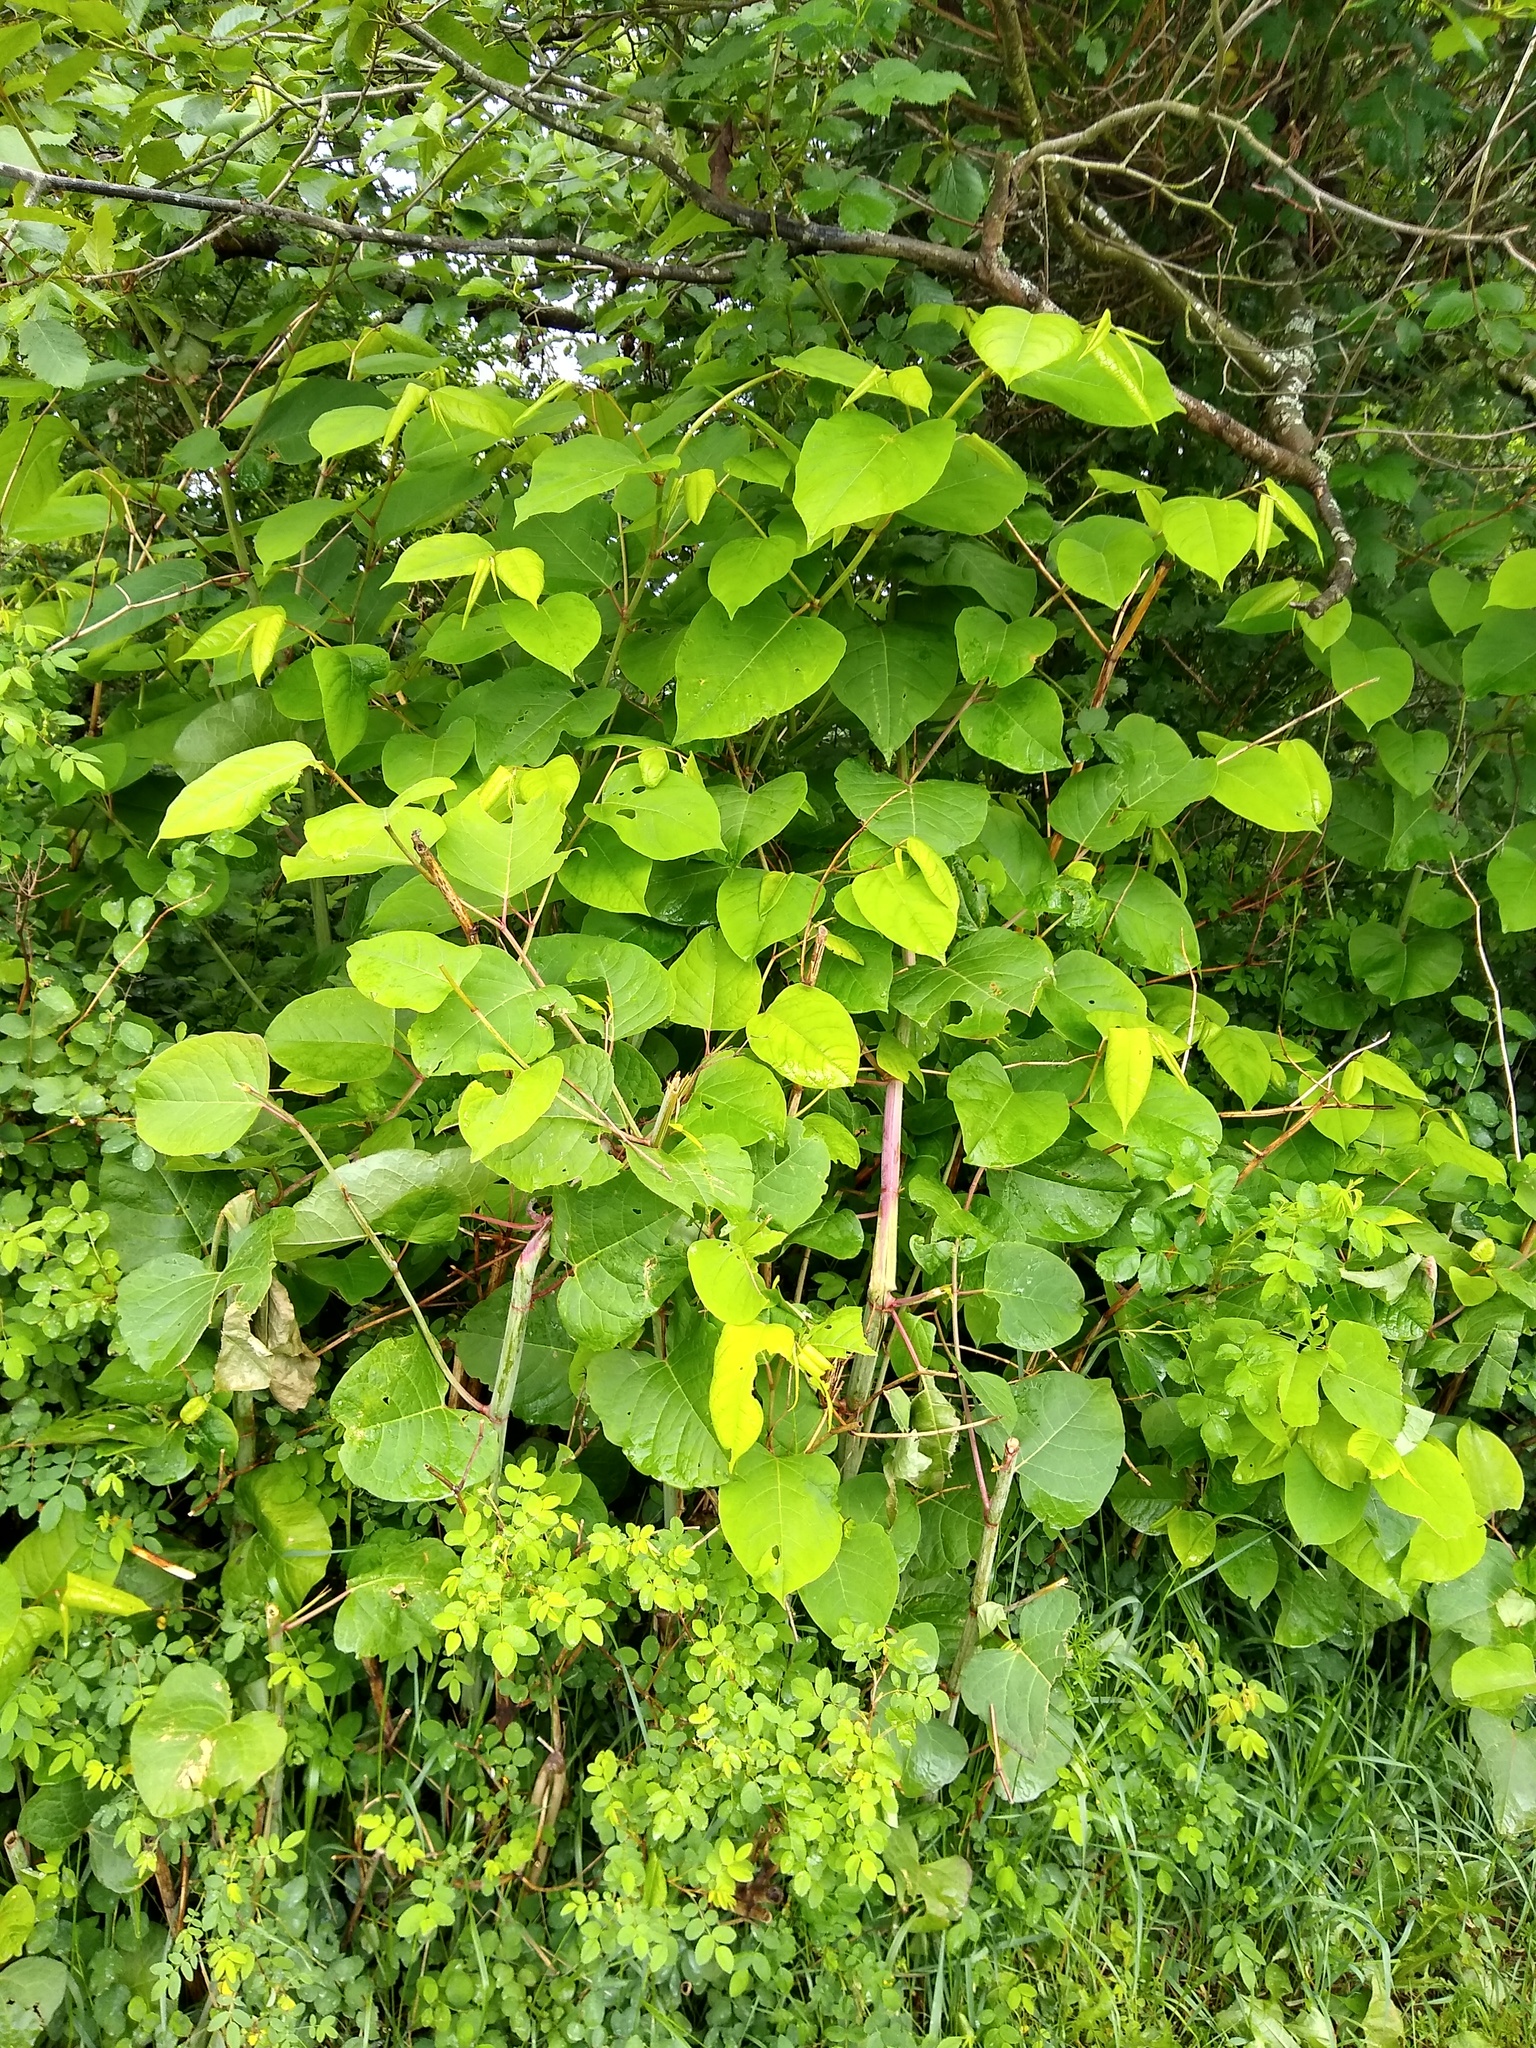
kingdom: Plantae
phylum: Tracheophyta
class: Magnoliopsida
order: Caryophyllales
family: Polygonaceae
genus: Reynoutria
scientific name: Reynoutria japonica
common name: Japanese knotweed
